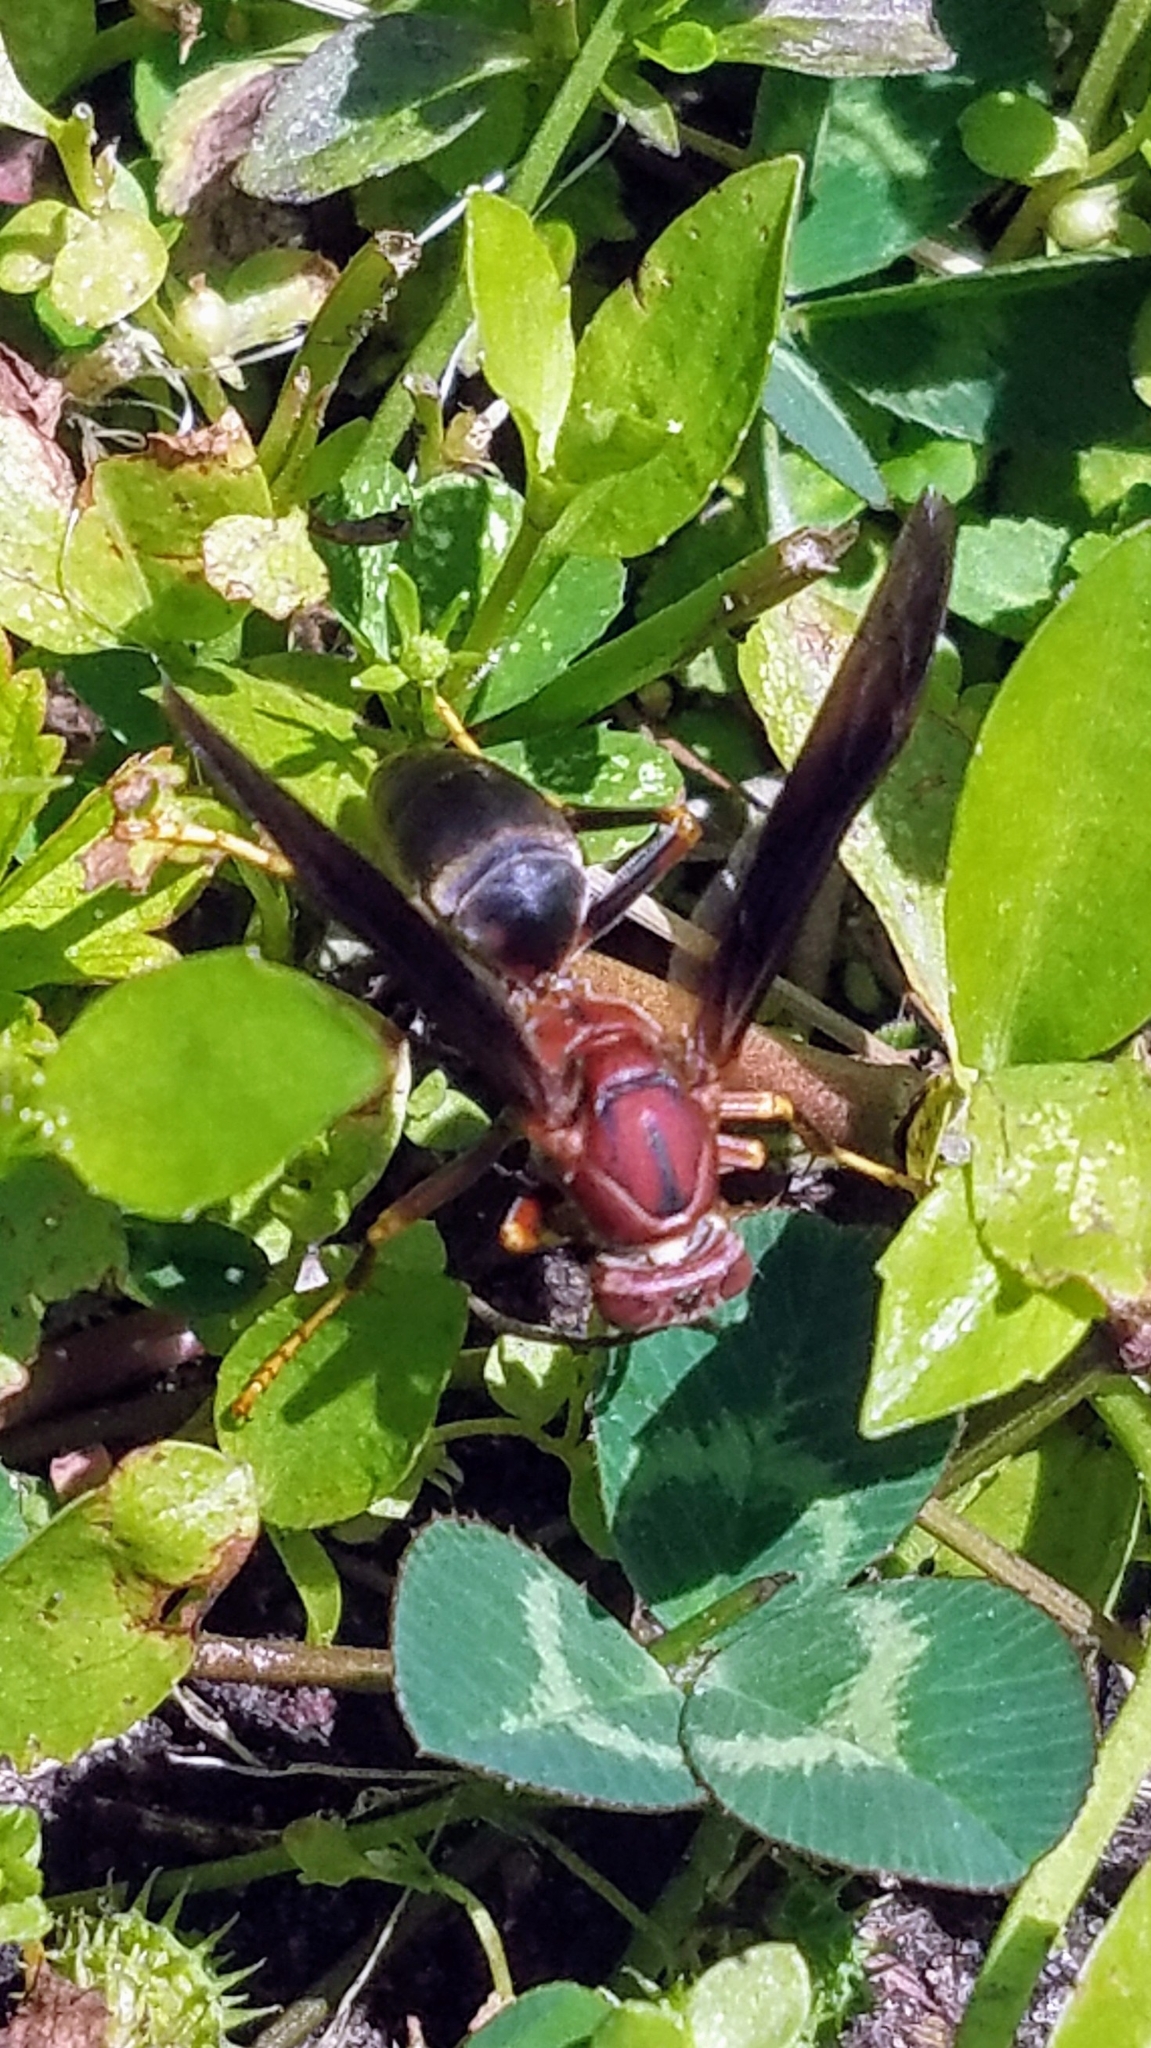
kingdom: Animalia
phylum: Arthropoda
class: Insecta
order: Hymenoptera
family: Eumenidae
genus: Polistes
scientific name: Polistes metricus
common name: Metric paper wasp
